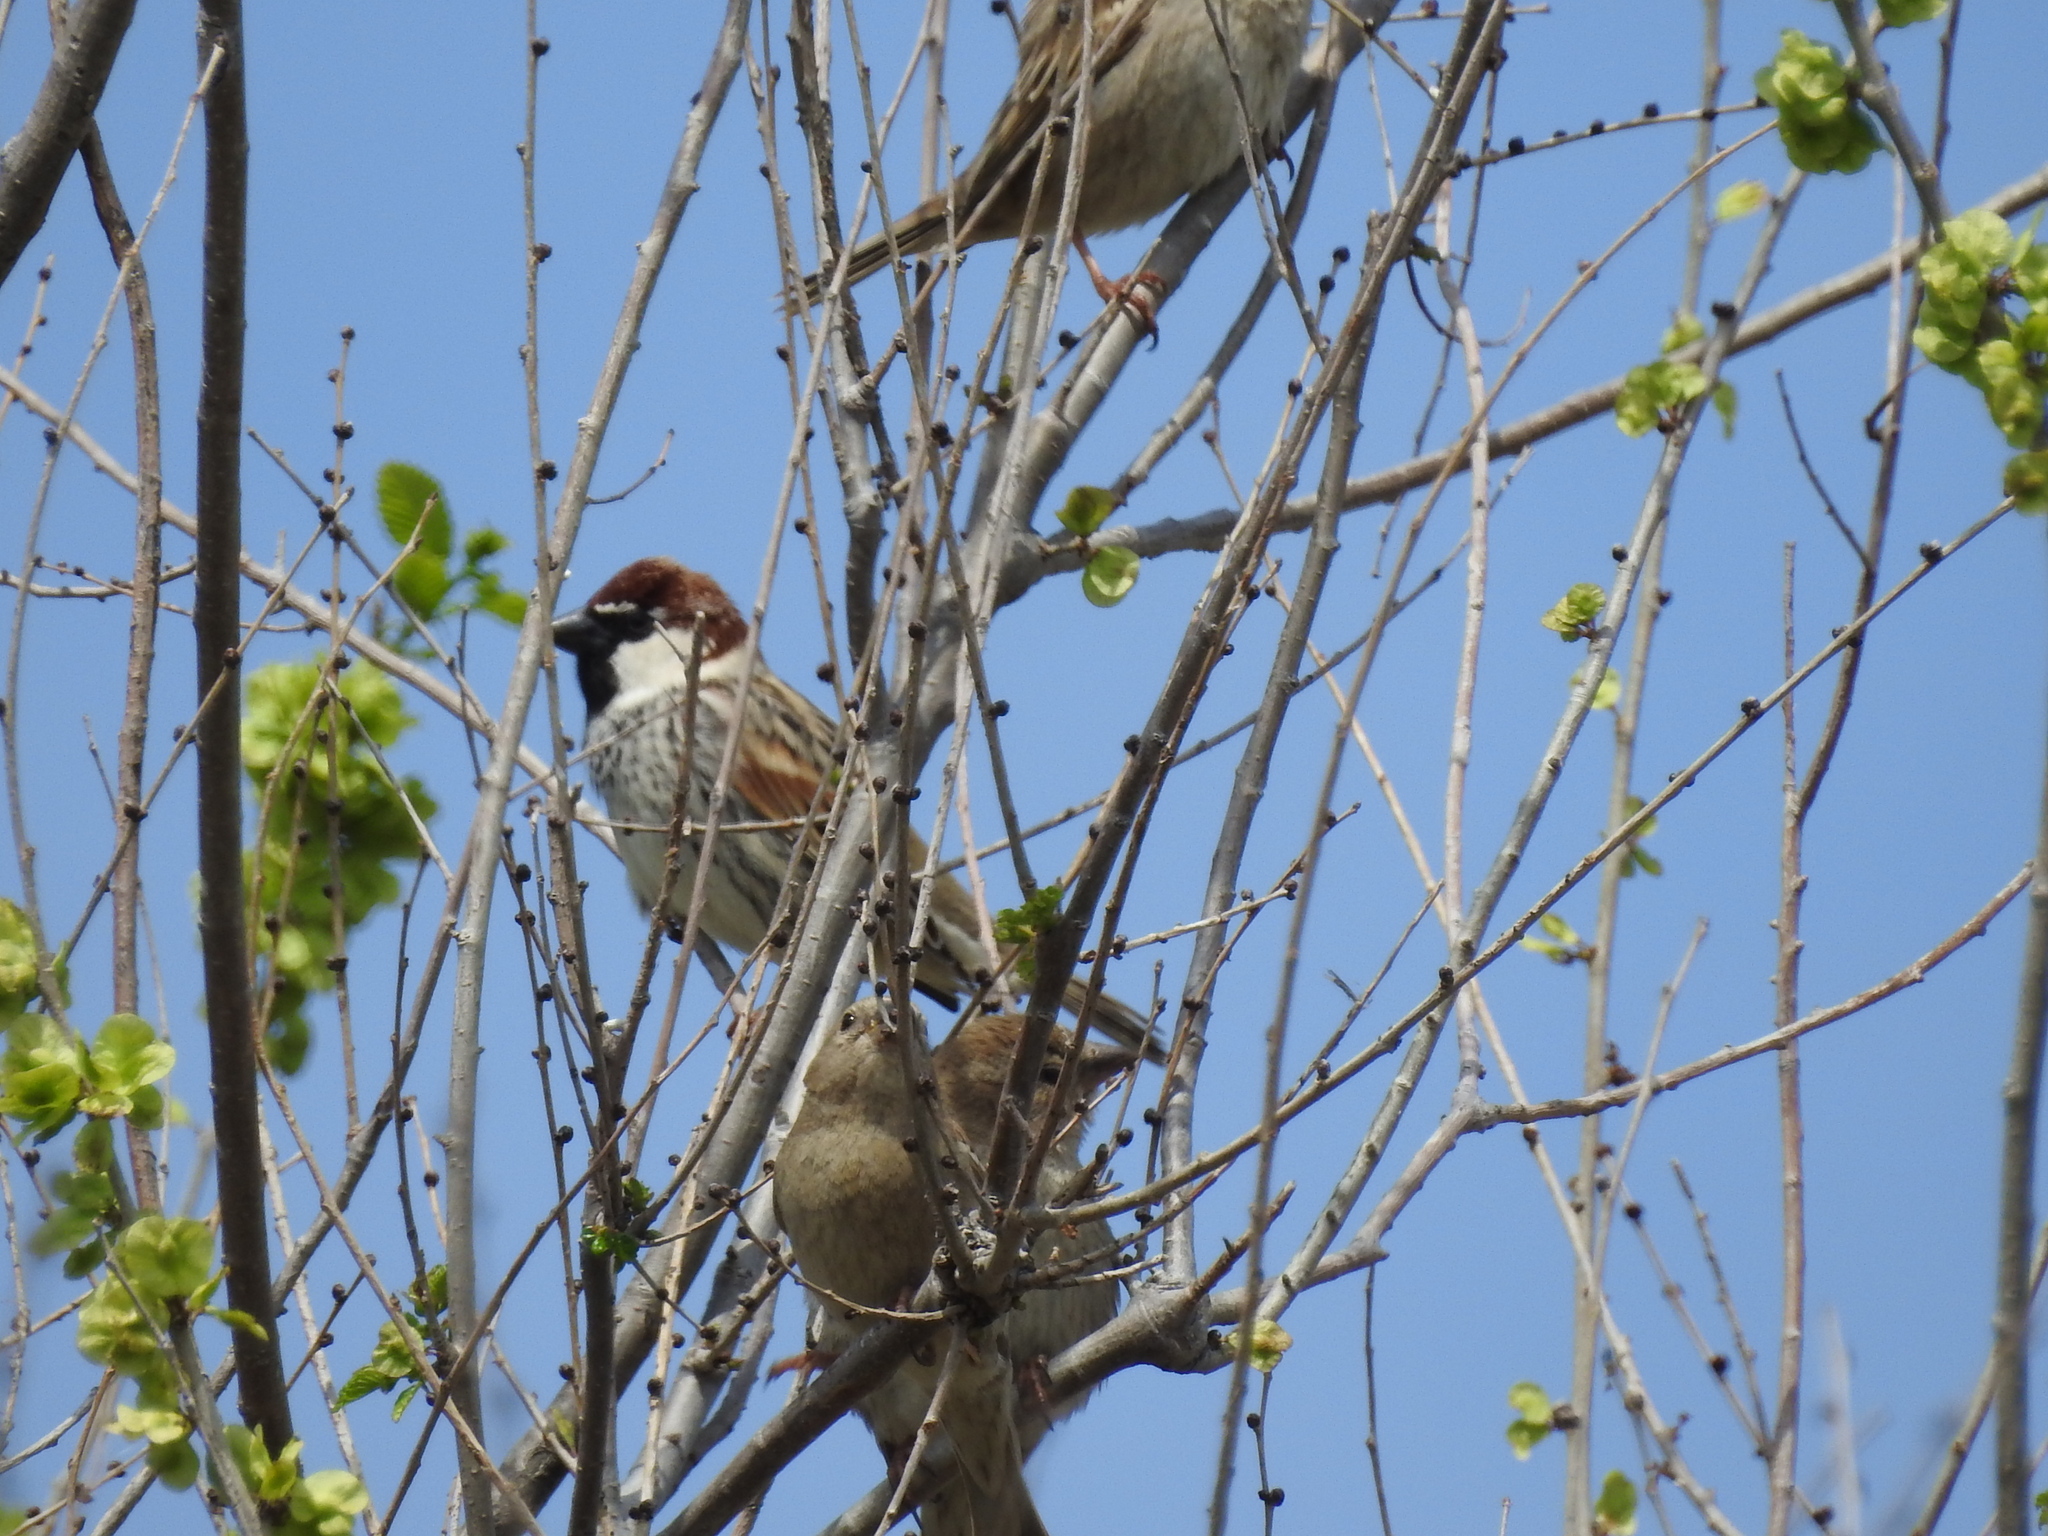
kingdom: Animalia
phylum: Chordata
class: Aves
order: Passeriformes
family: Passeridae
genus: Passer
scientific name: Passer hispaniolensis
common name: Spanish sparrow
